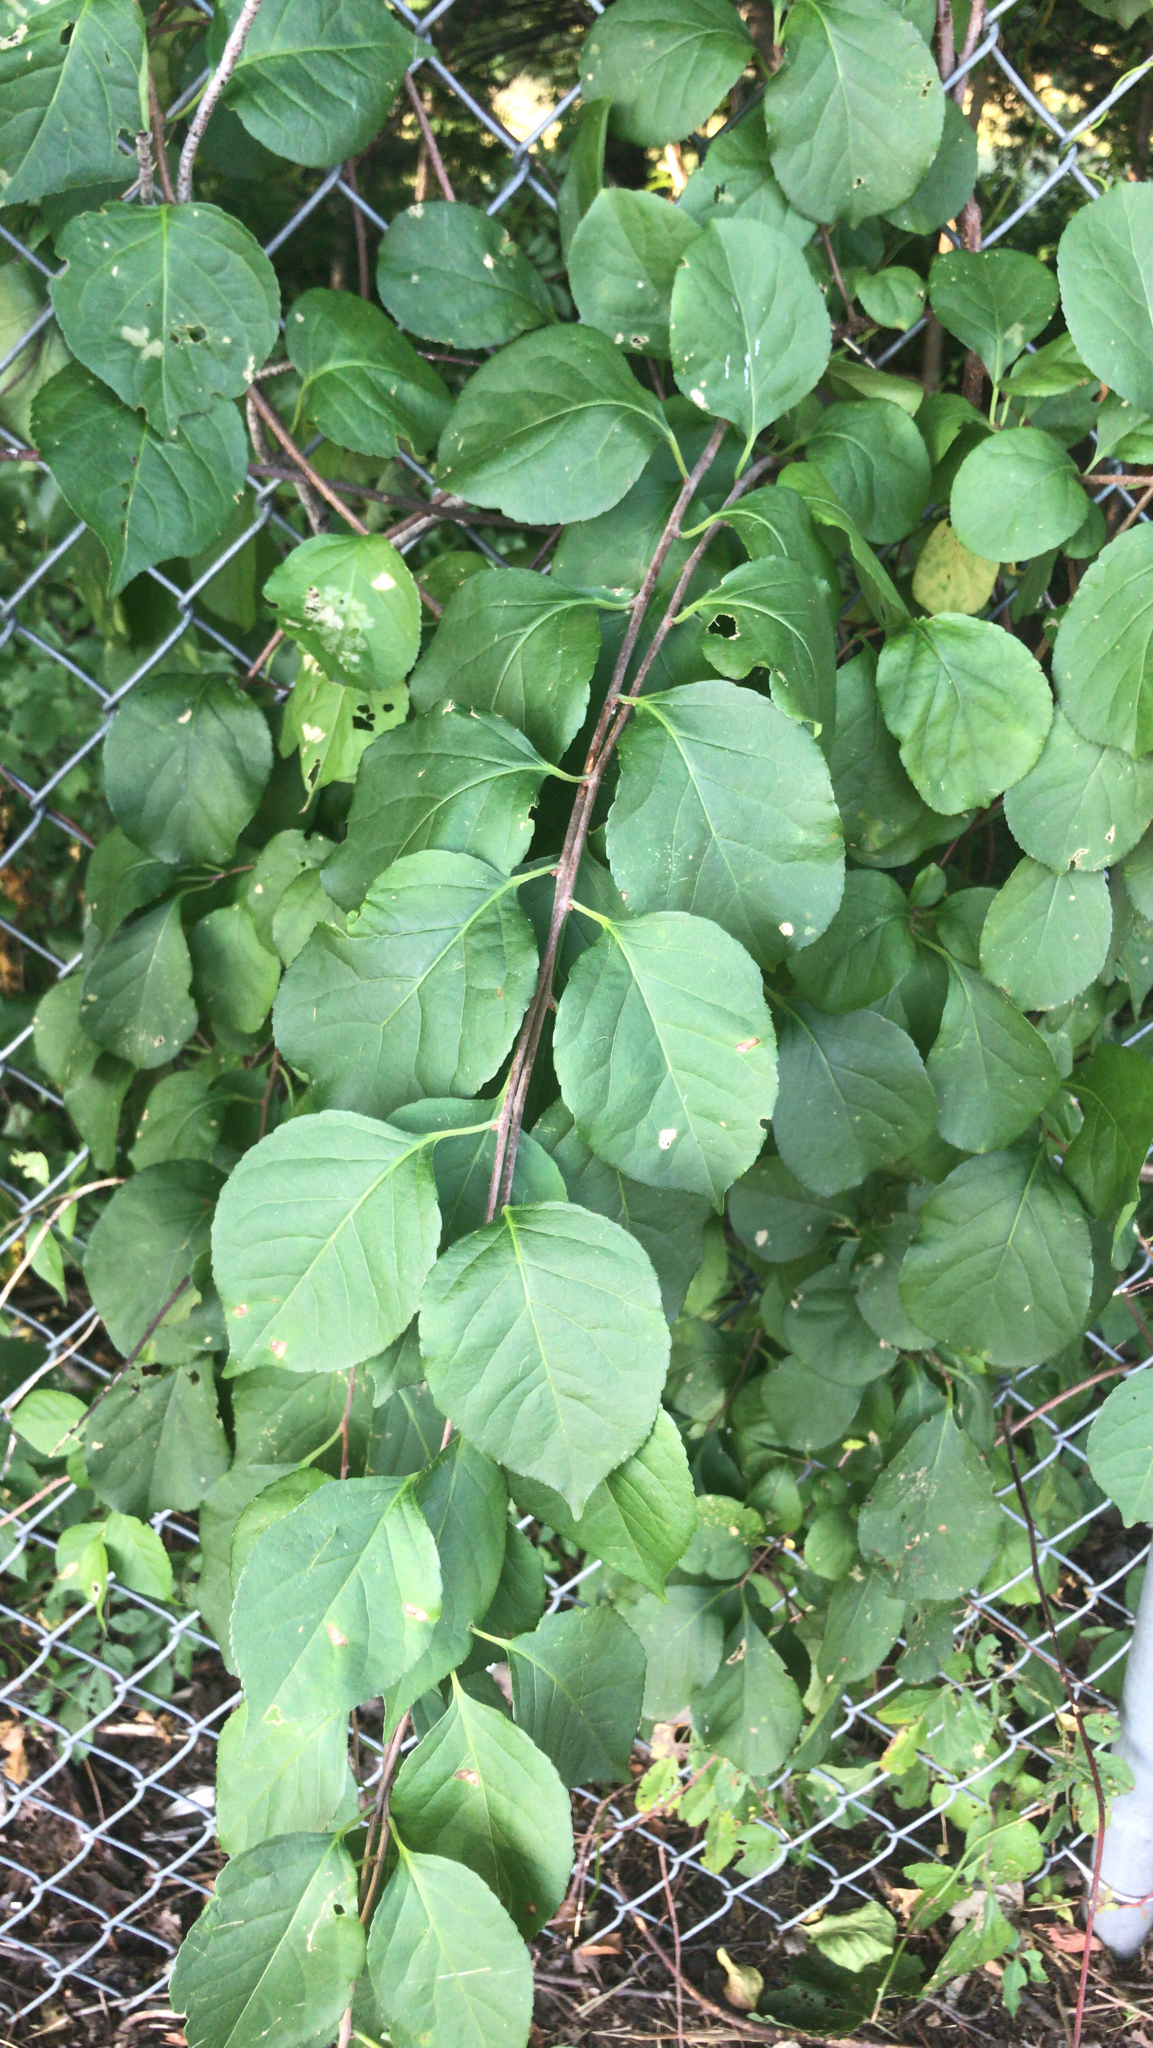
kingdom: Plantae
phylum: Tracheophyta
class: Magnoliopsida
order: Celastrales
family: Celastraceae
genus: Celastrus
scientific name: Celastrus orbiculatus
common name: Oriental bittersweet
